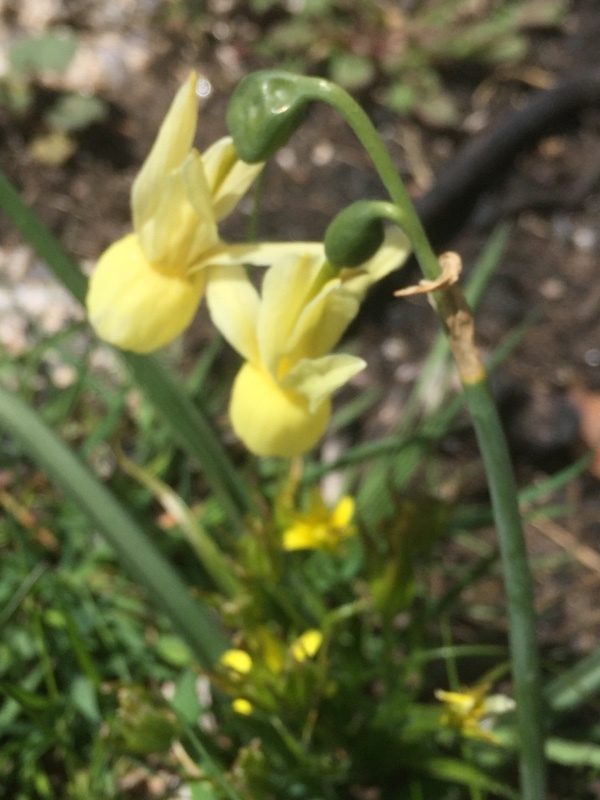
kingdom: Plantae
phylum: Tracheophyta
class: Liliopsida
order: Asparagales
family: Amaryllidaceae
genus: Narcissus
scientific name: Narcissus triandrus
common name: Angel's-tears
